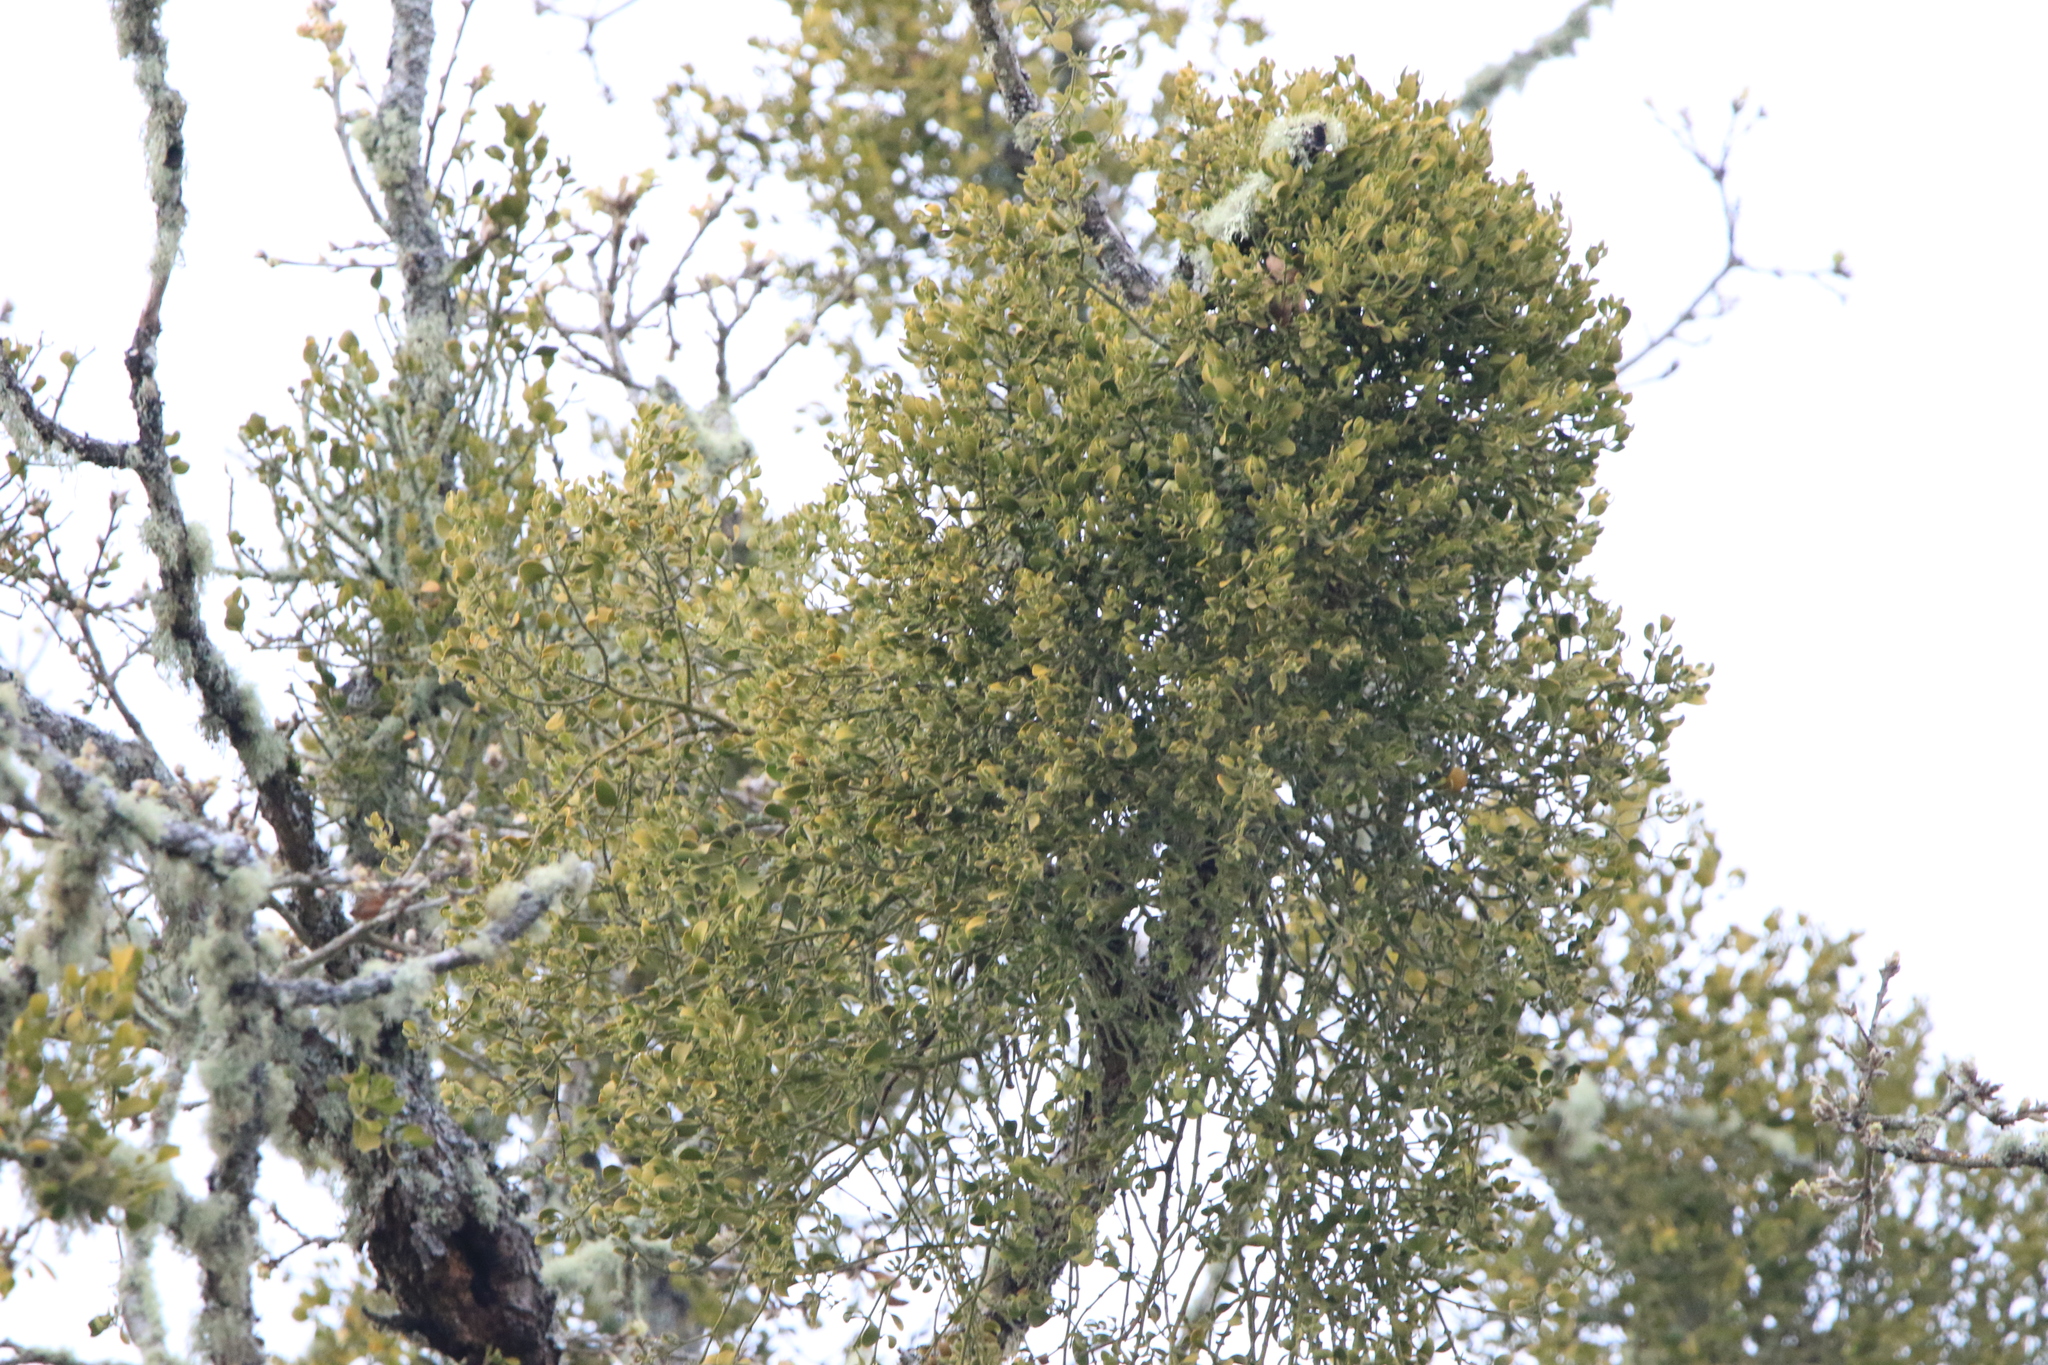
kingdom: Plantae
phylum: Tracheophyta
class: Magnoliopsida
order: Santalales
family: Viscaceae
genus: Phoradendron
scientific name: Phoradendron leucarpum
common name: Pacific mistletoe
